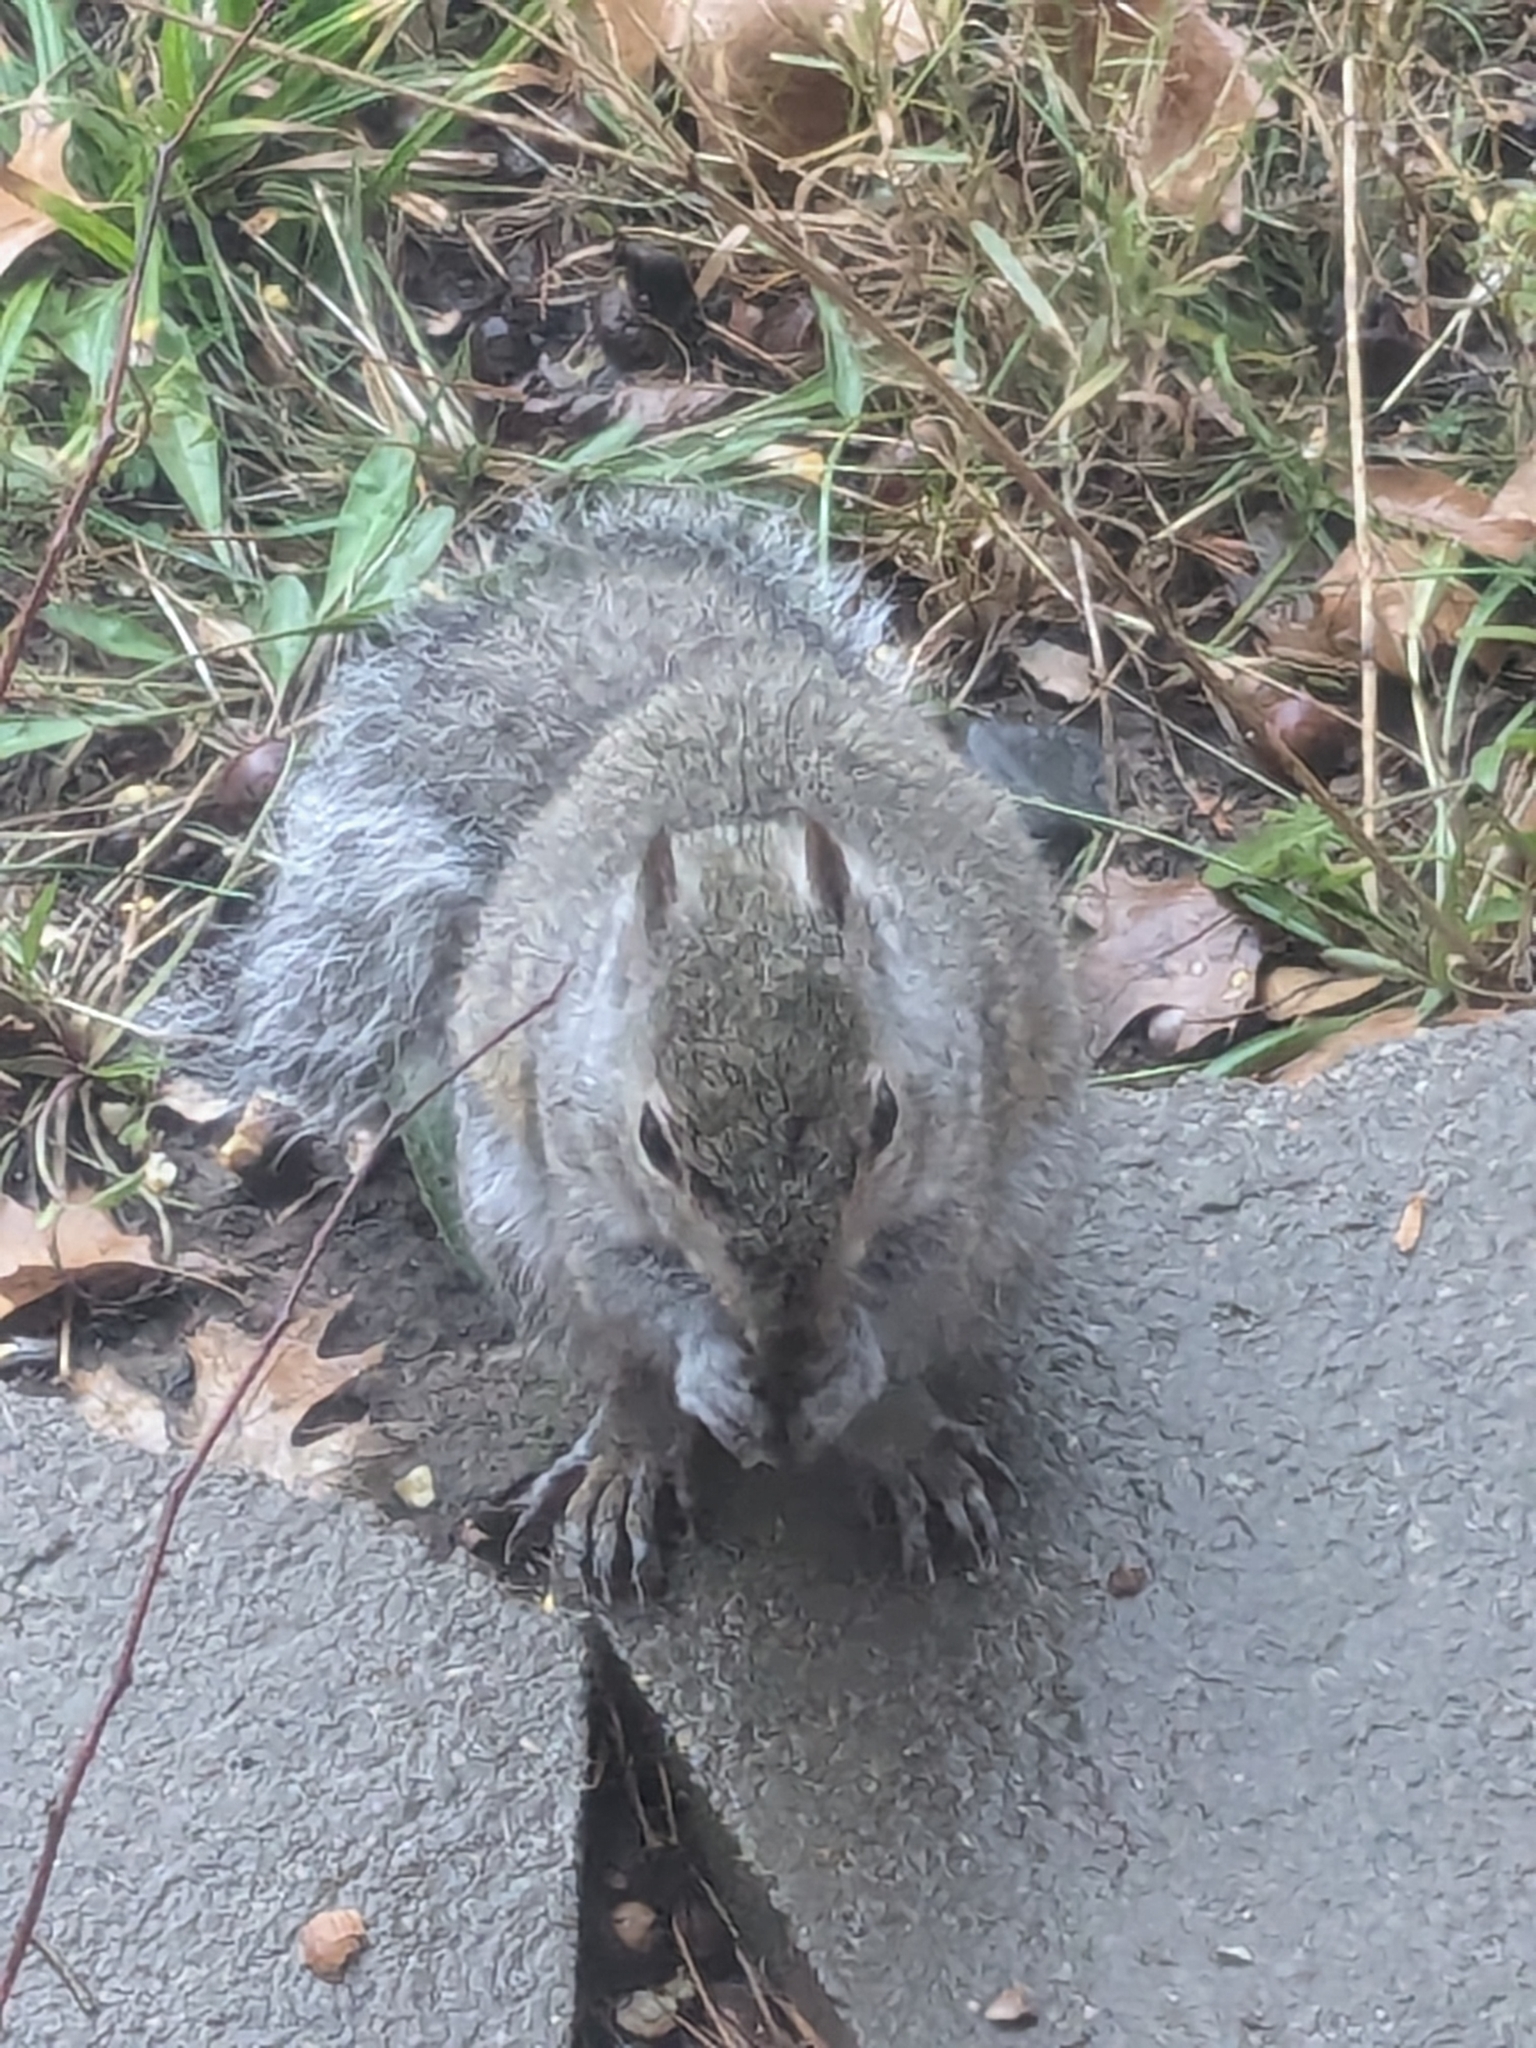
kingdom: Animalia
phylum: Chordata
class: Mammalia
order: Rodentia
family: Sciuridae
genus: Sciurus
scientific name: Sciurus carolinensis
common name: Eastern gray squirrel
